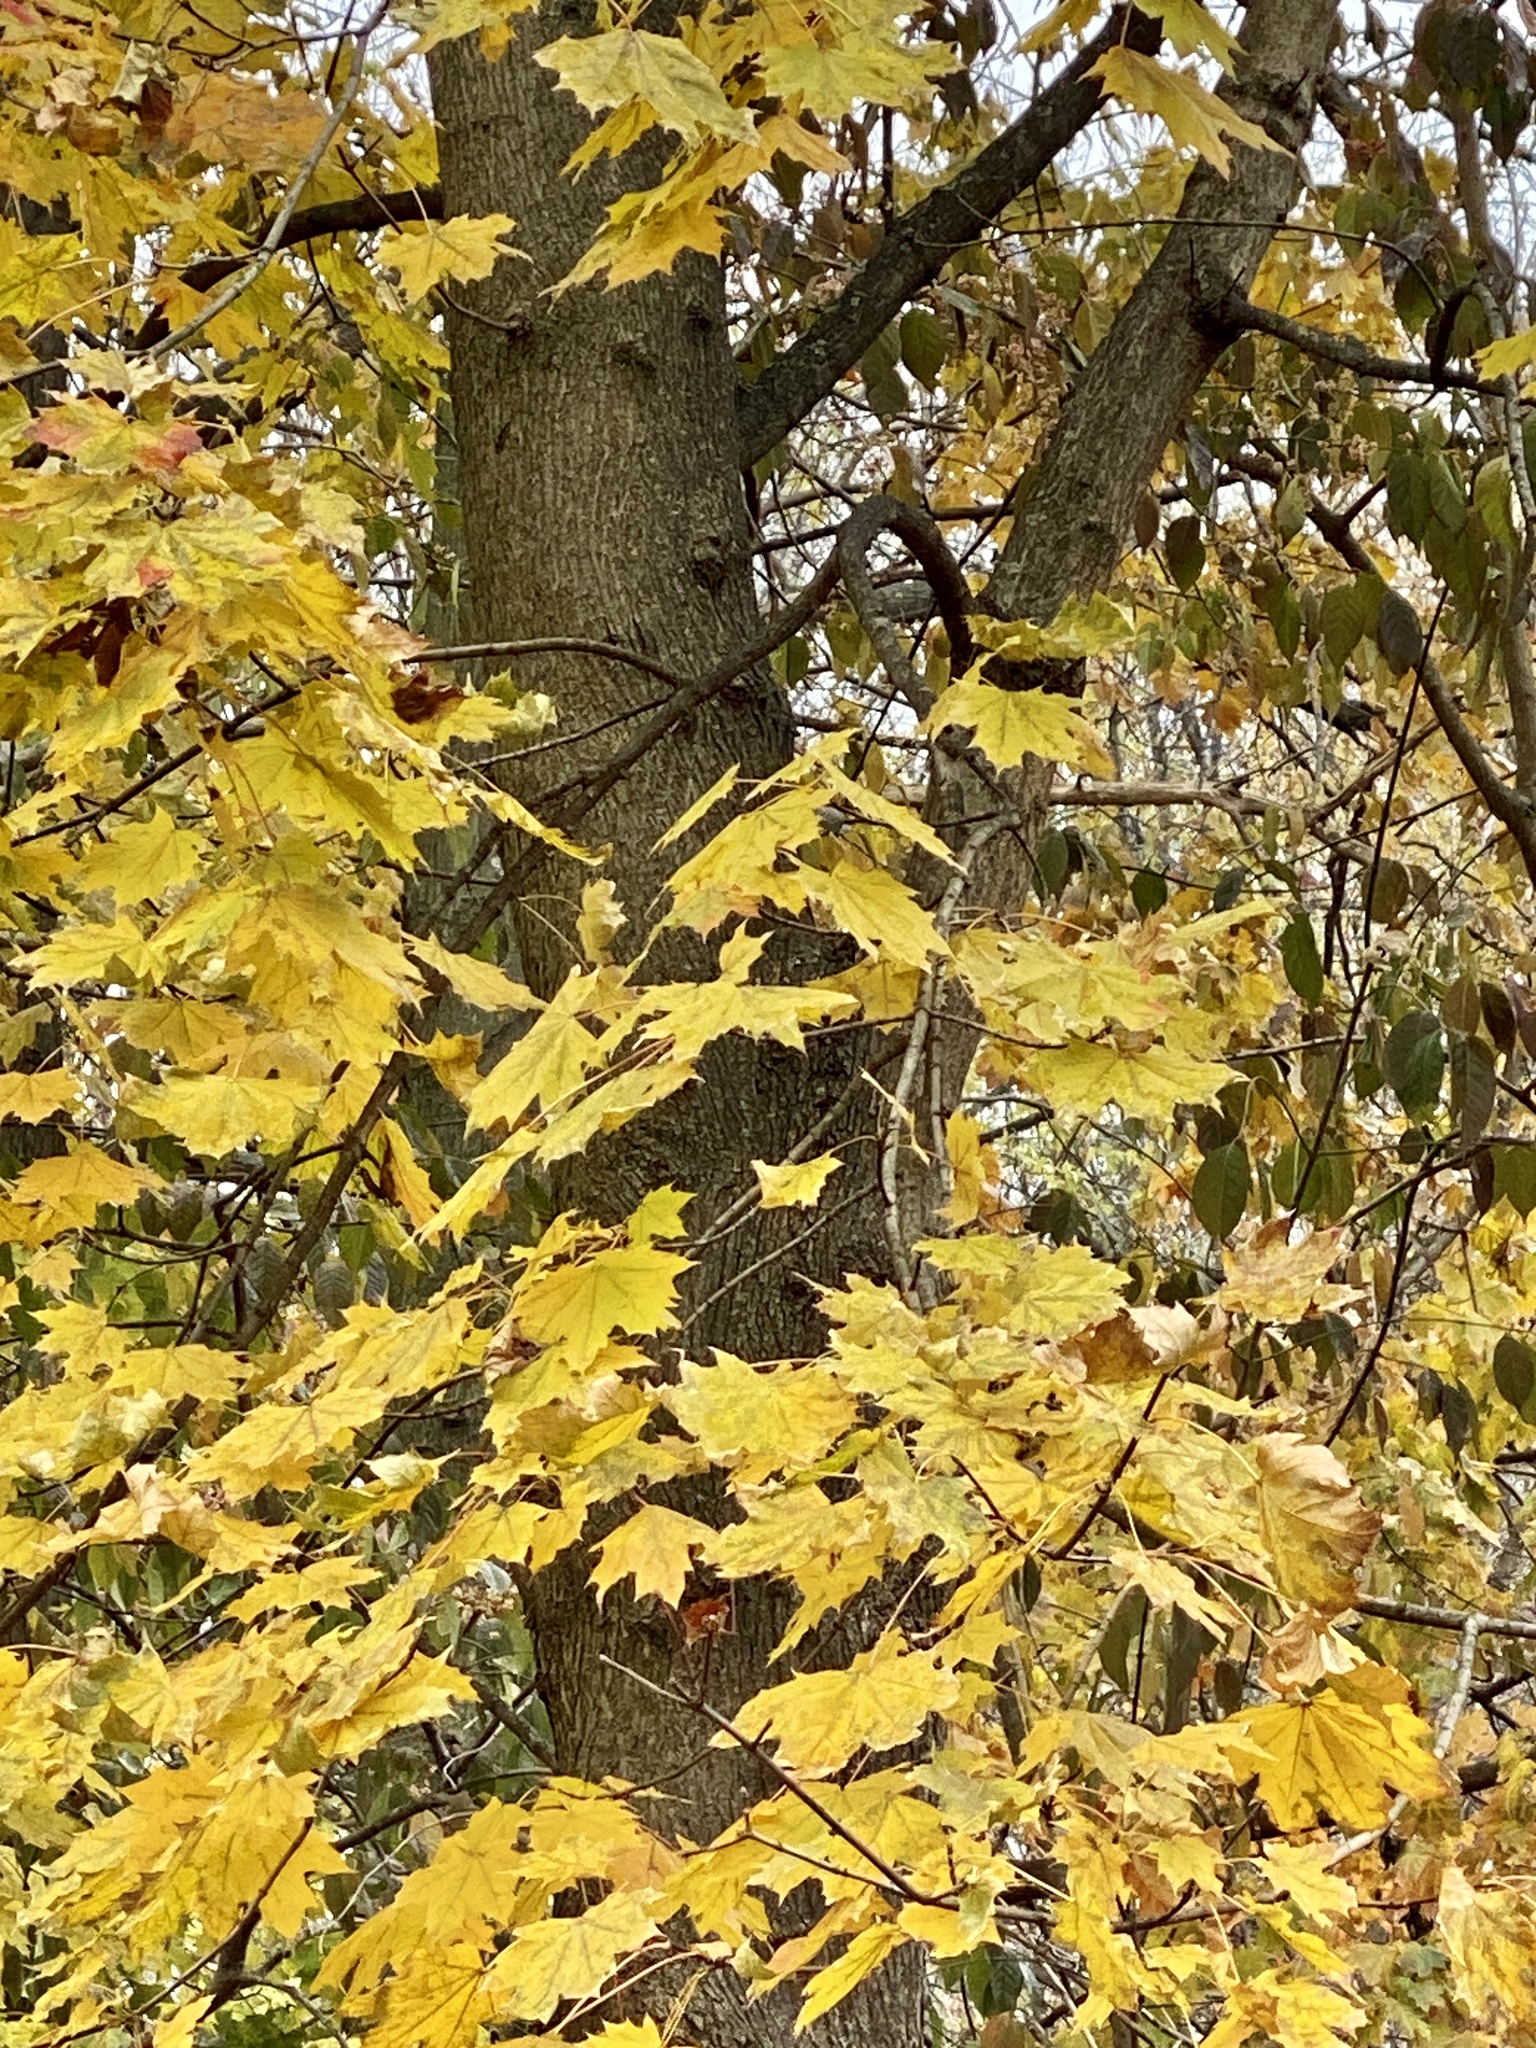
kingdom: Plantae
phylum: Tracheophyta
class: Magnoliopsida
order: Sapindales
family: Sapindaceae
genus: Acer
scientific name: Acer platanoides
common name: Norway maple
